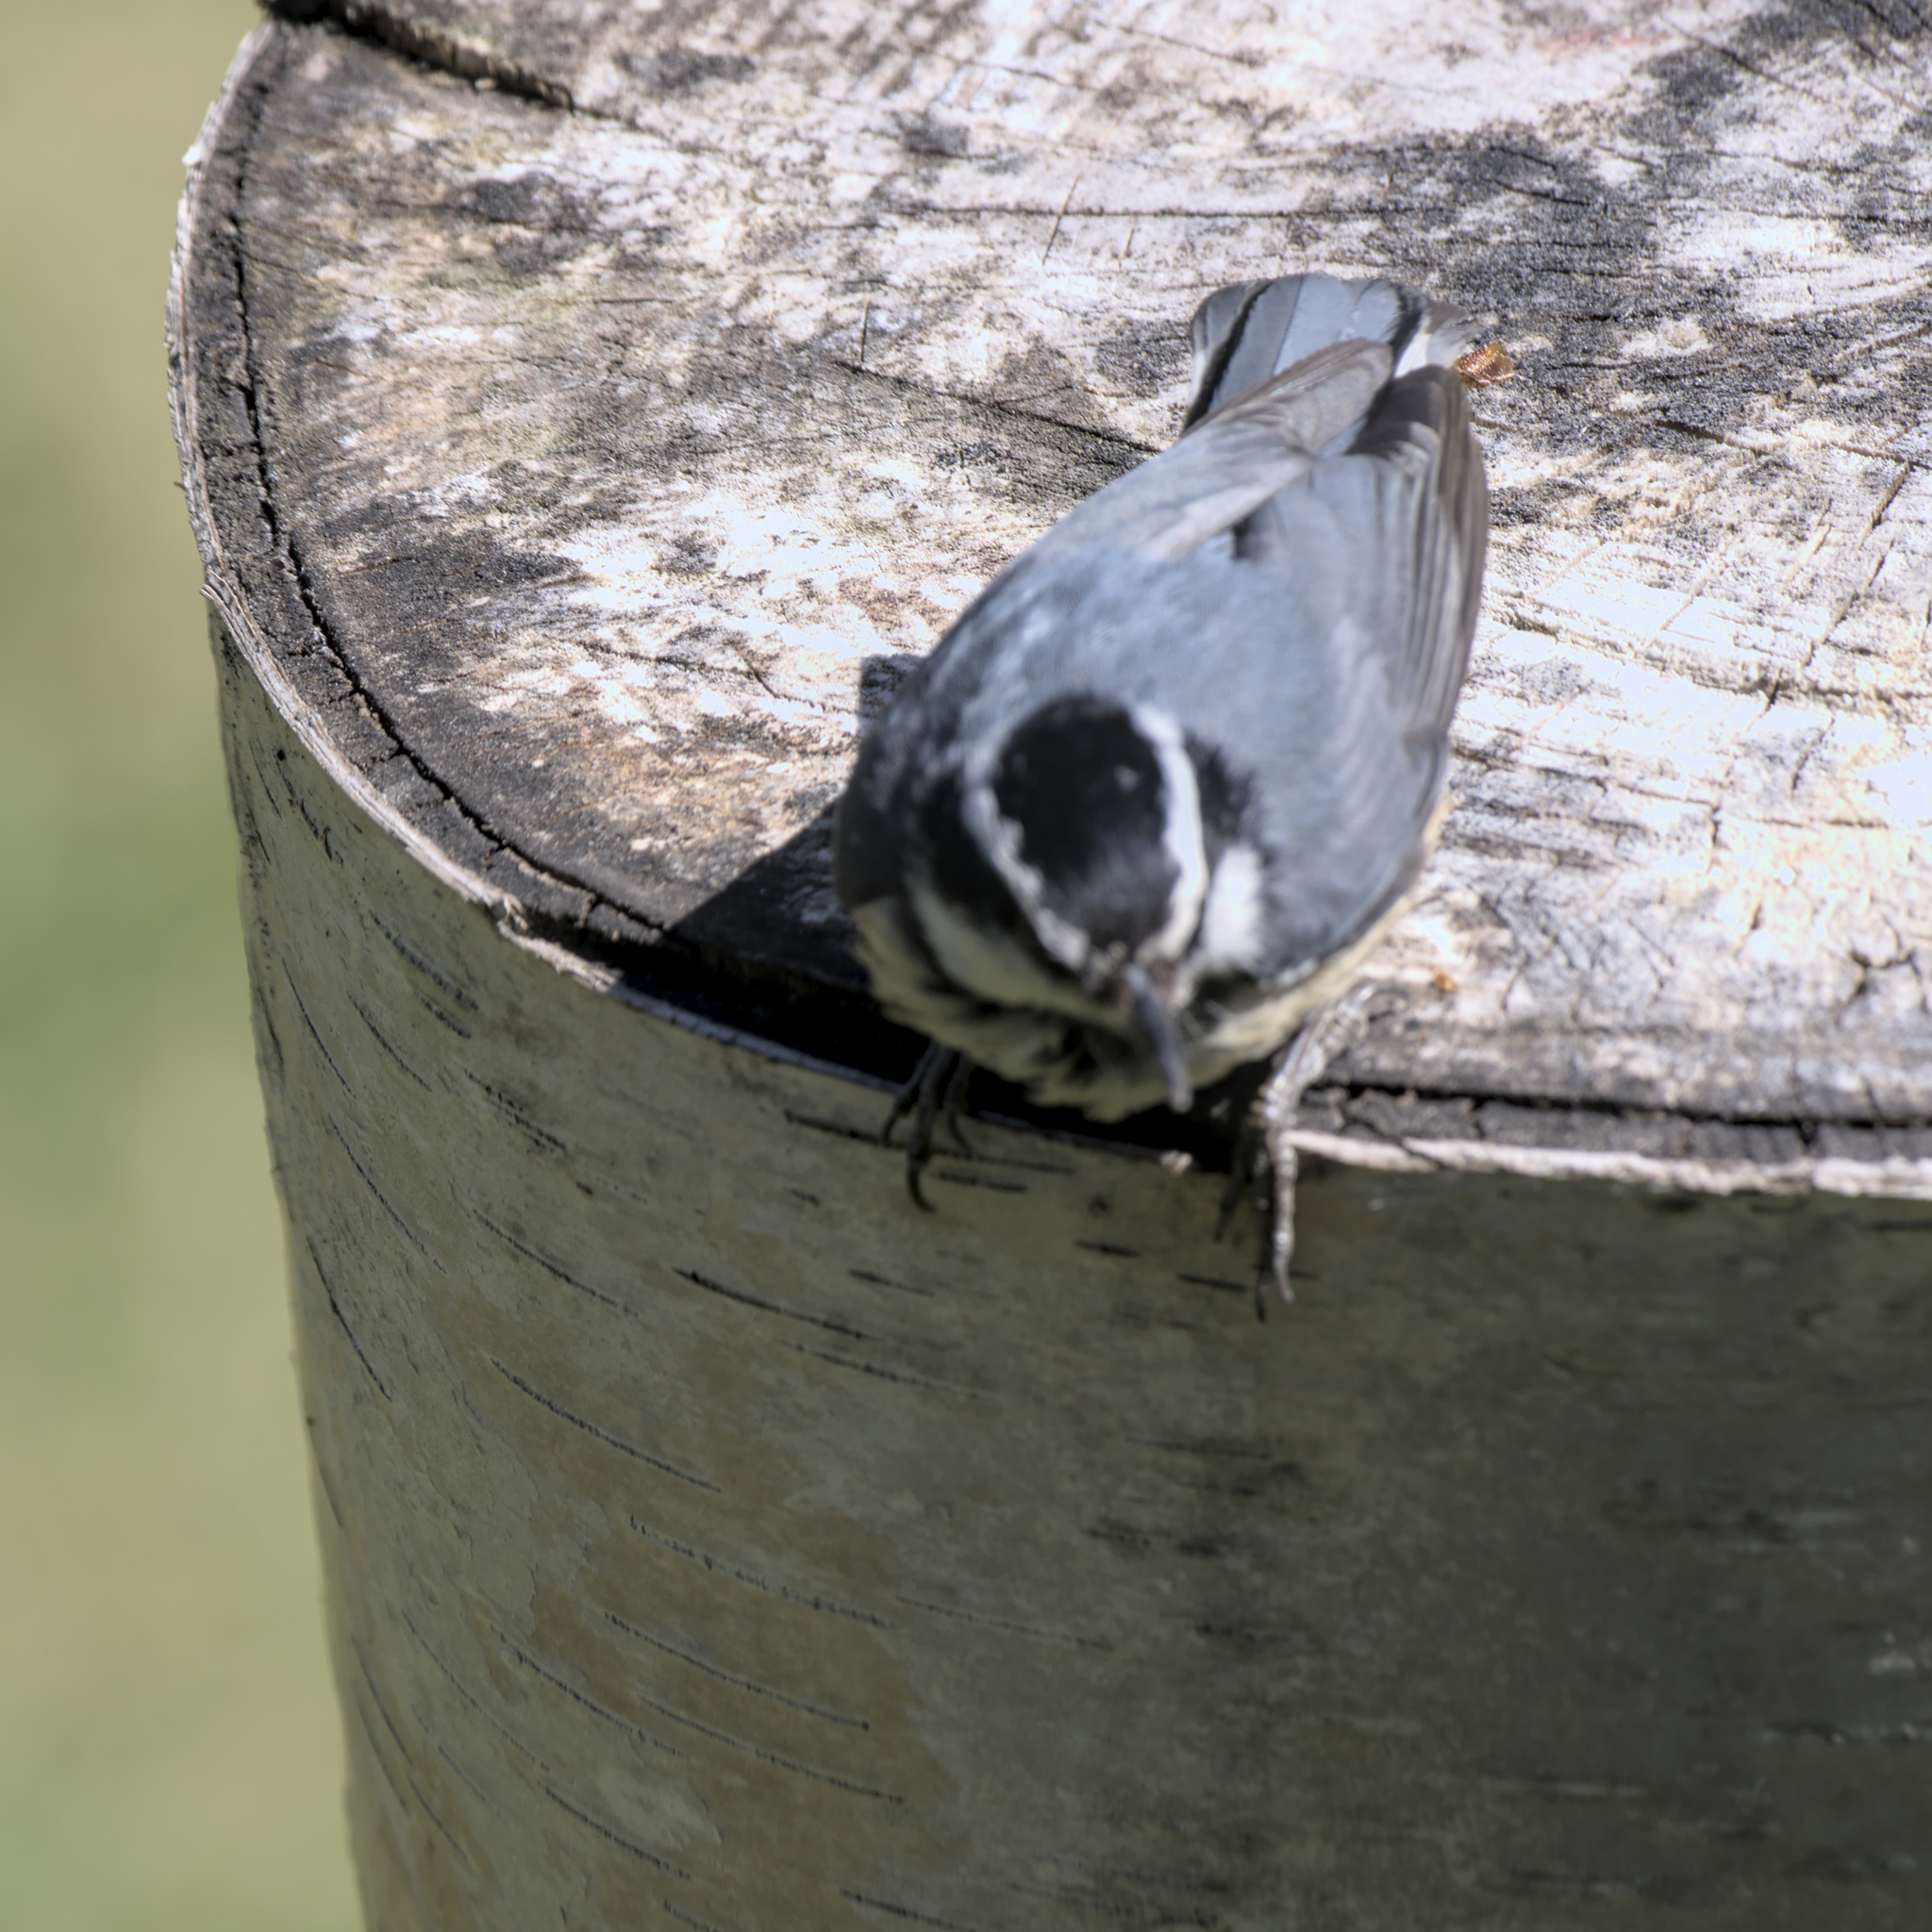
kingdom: Animalia
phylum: Chordata
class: Aves
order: Passeriformes
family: Sittidae
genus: Sitta
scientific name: Sitta canadensis
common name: Red-breasted nuthatch
